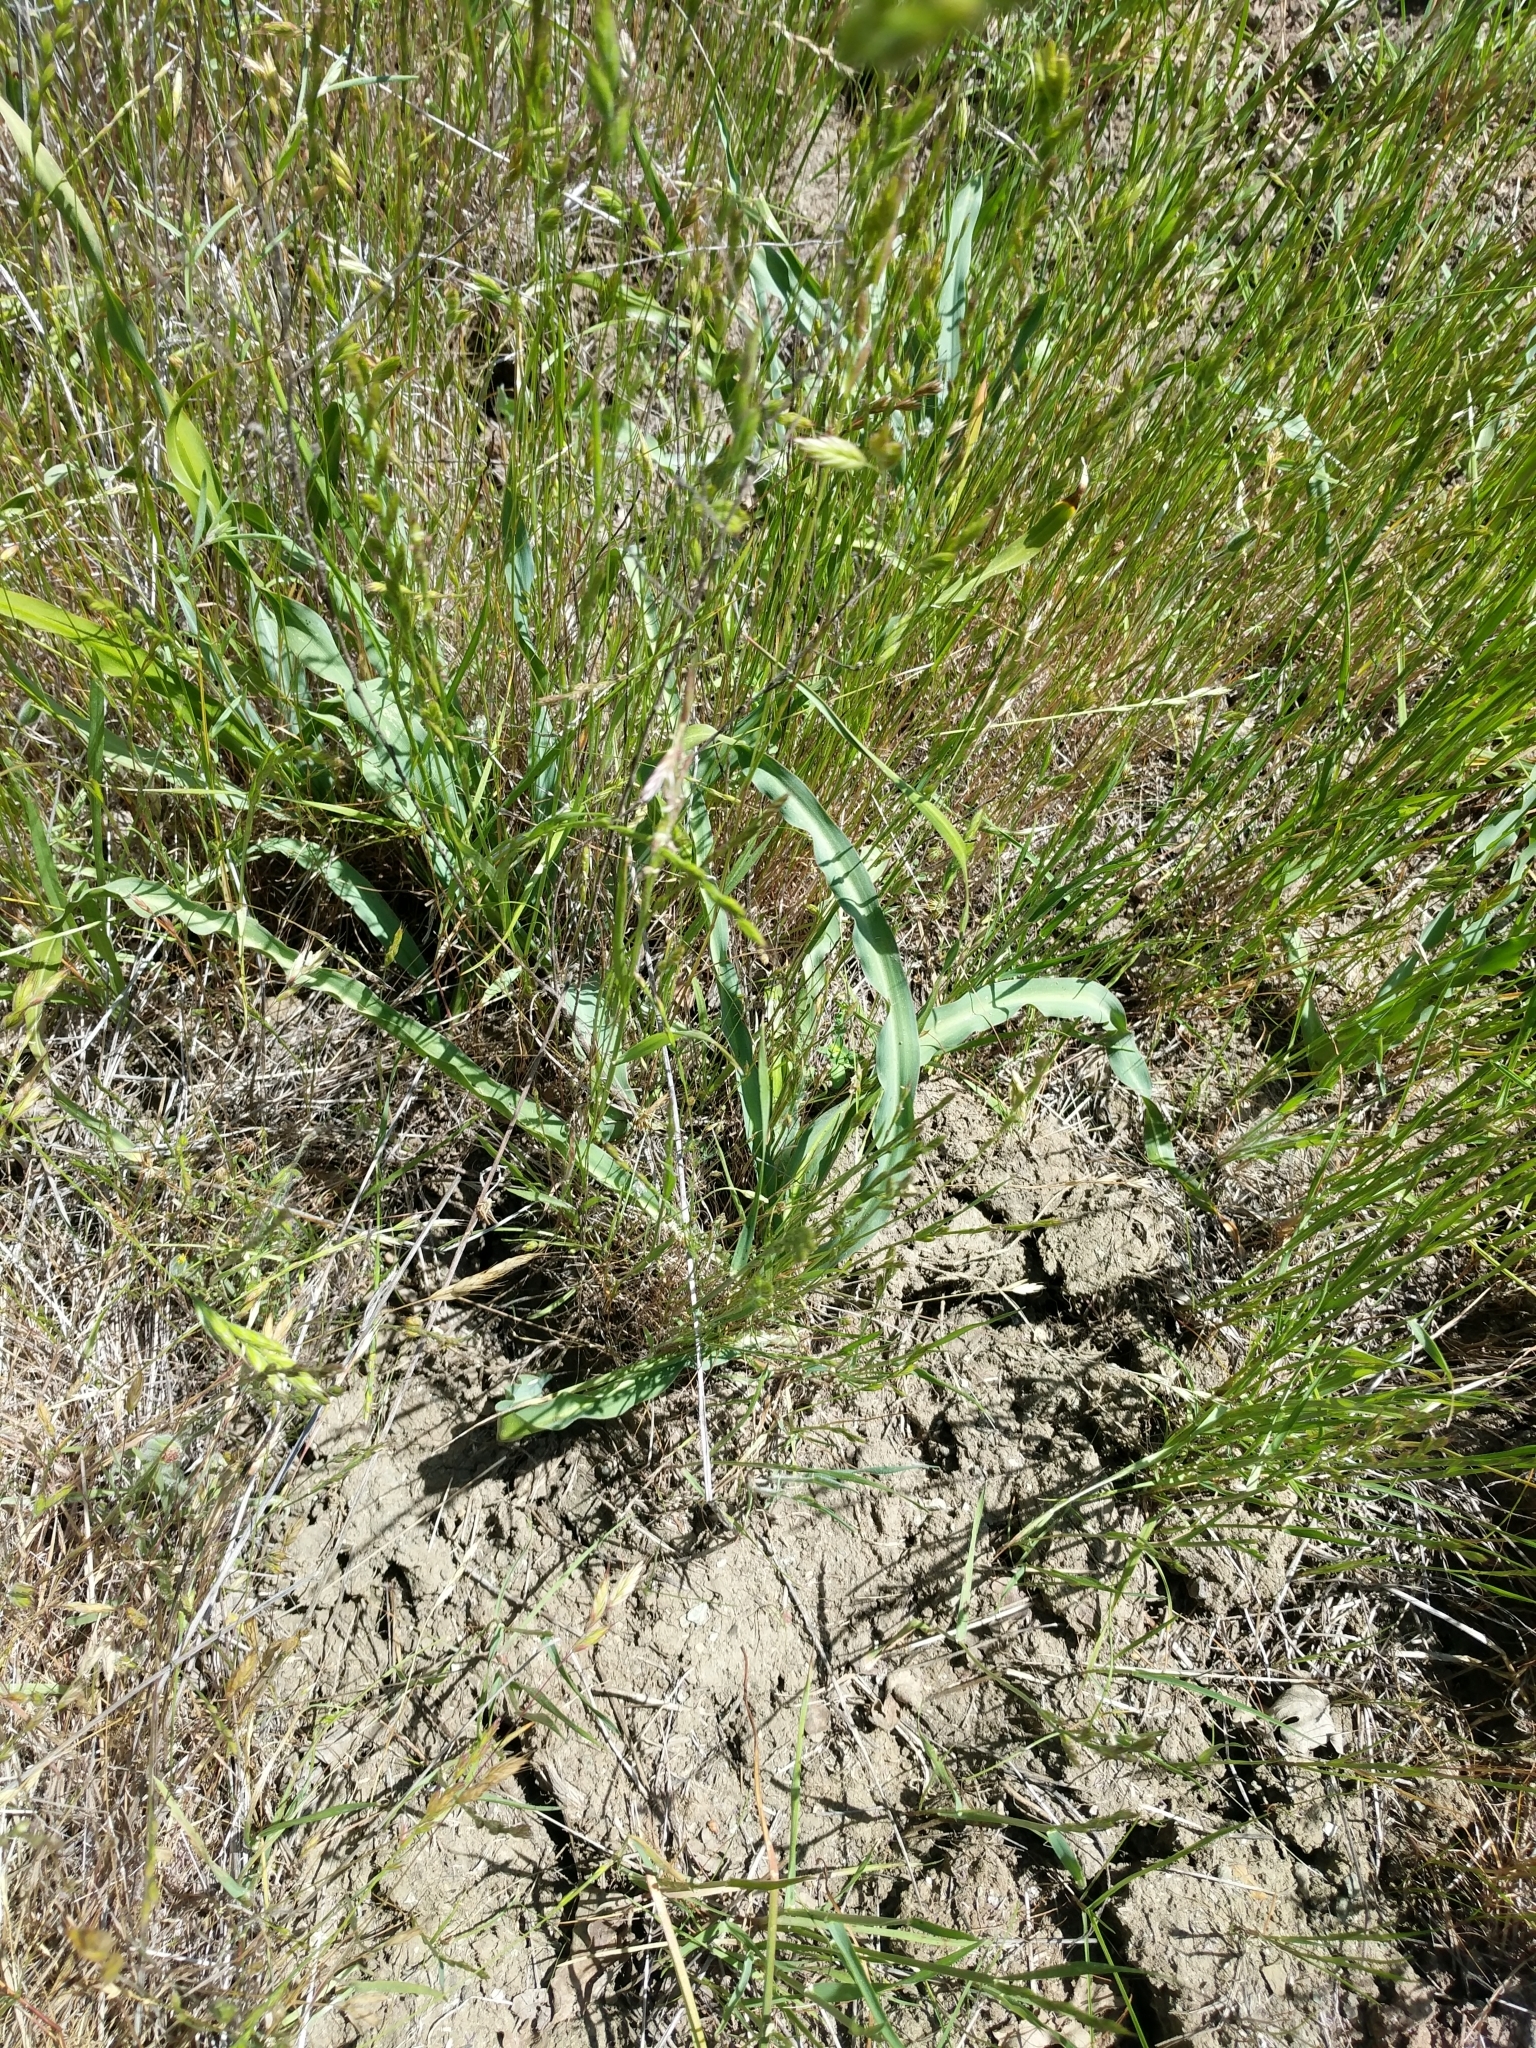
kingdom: Plantae
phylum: Tracheophyta
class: Liliopsida
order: Asparagales
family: Asparagaceae
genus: Chlorogalum
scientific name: Chlorogalum pomeridianum
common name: Amole
